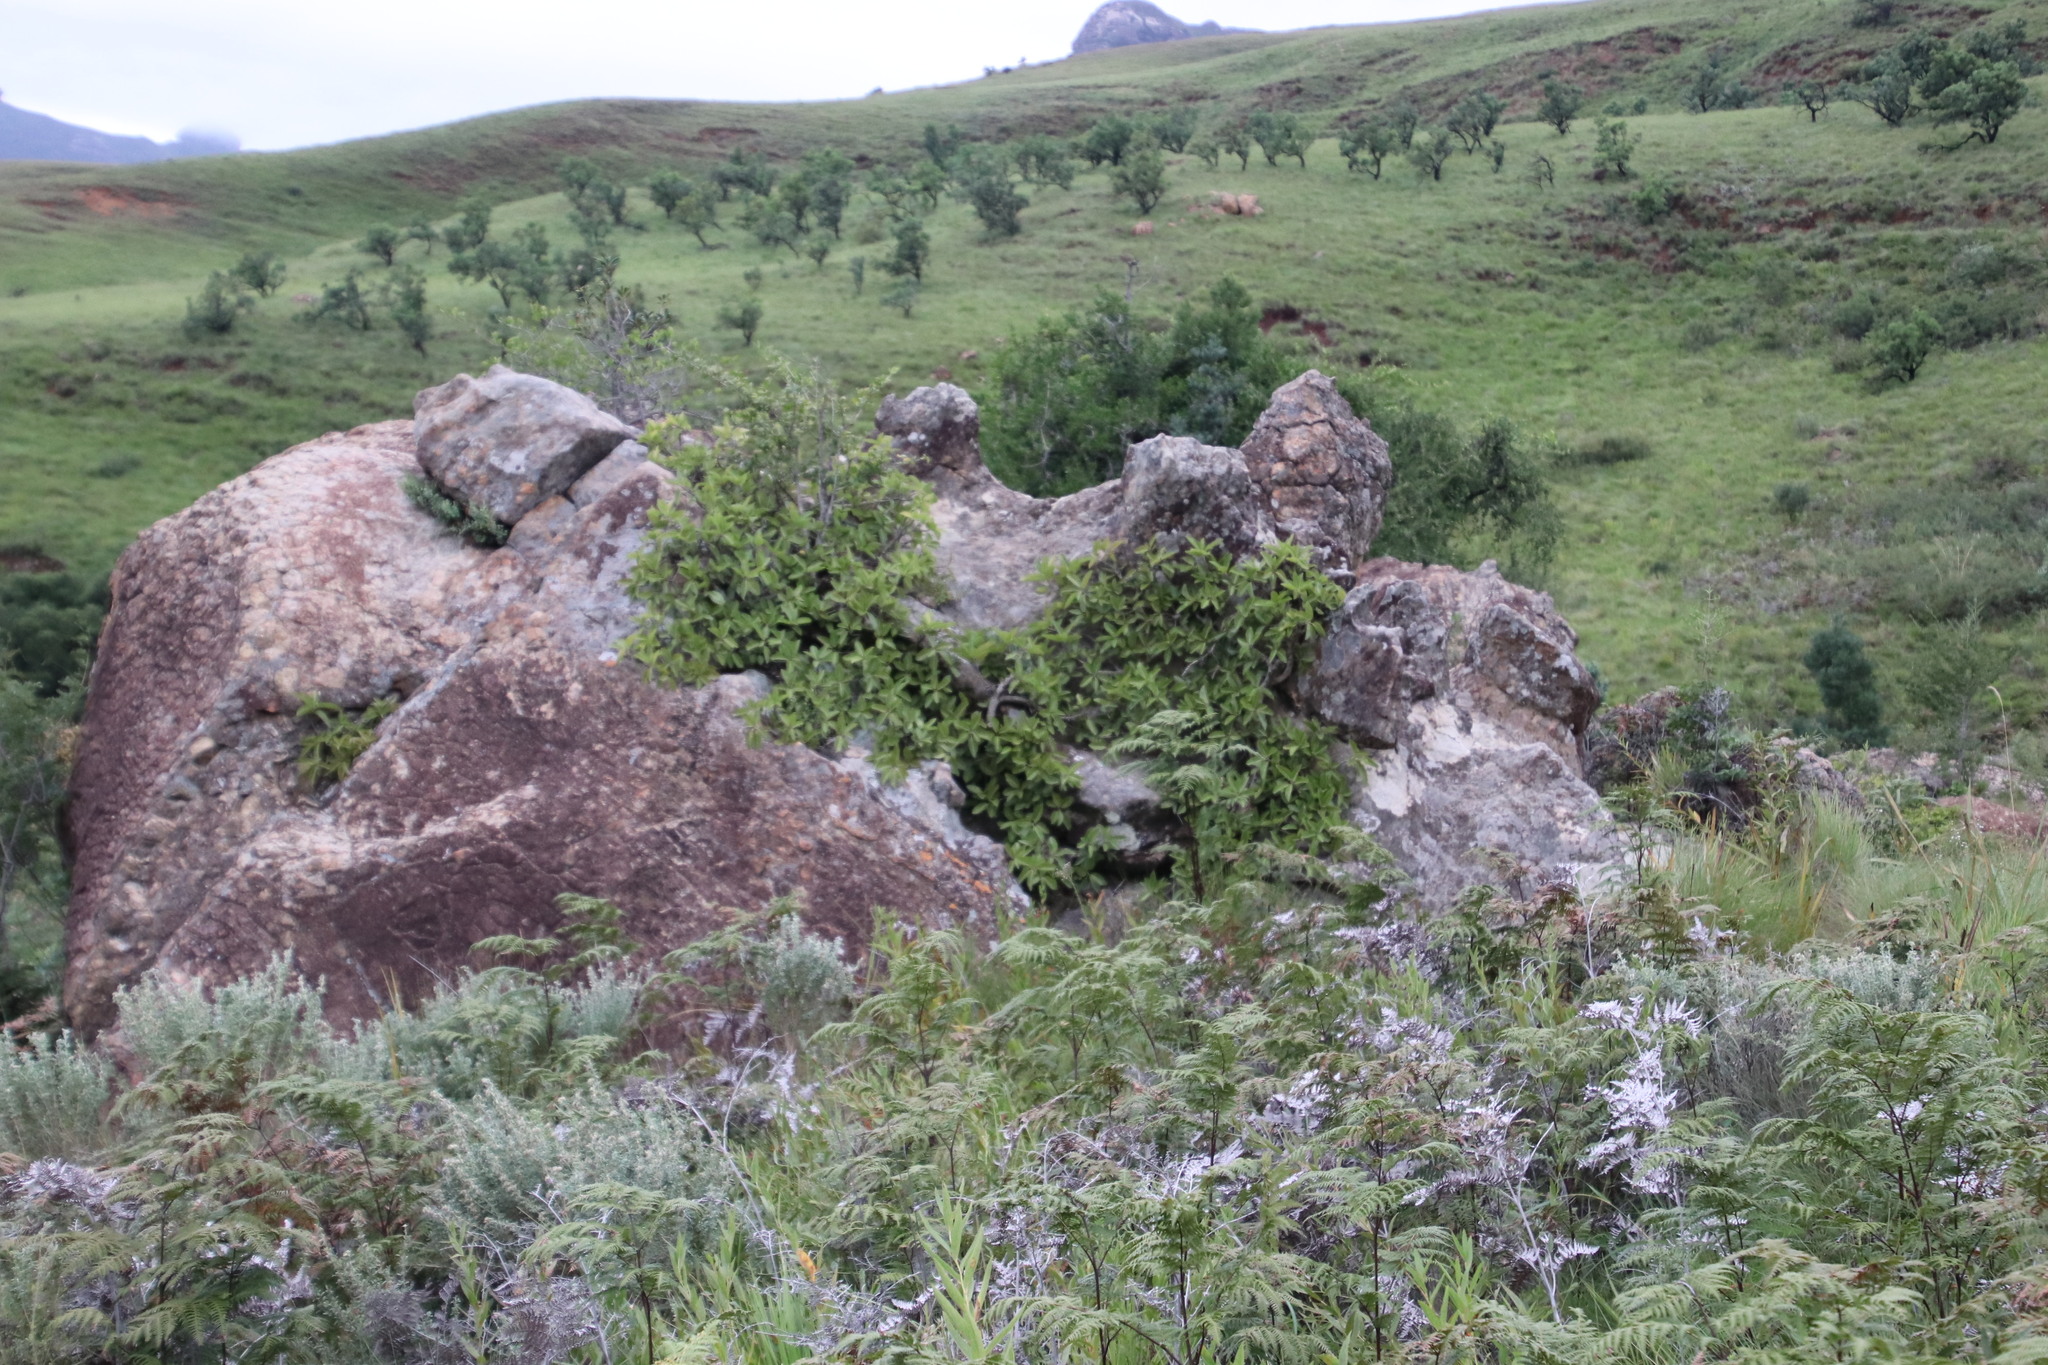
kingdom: Plantae
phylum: Tracheophyta
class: Magnoliopsida
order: Rosales
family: Moraceae
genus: Ficus
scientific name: Ficus ingens
